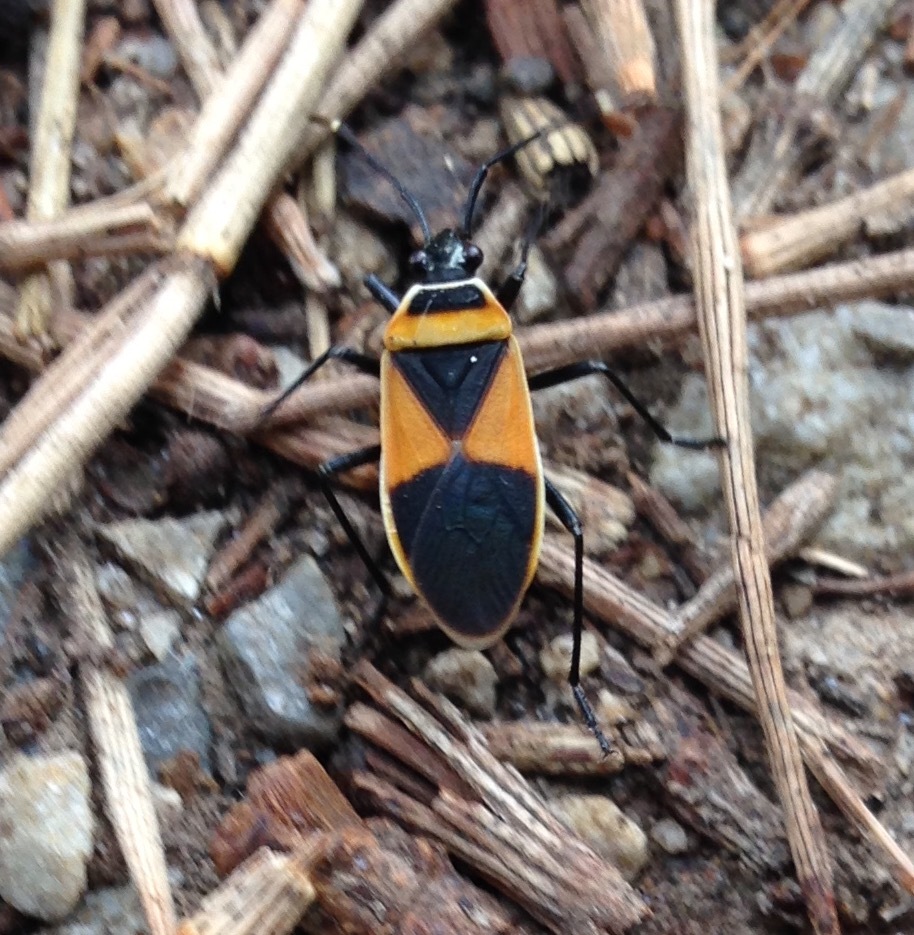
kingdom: Animalia
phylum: Arthropoda
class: Insecta
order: Hemiptera
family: Pyrrhocoridae
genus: Dindymus
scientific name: Dindymus
